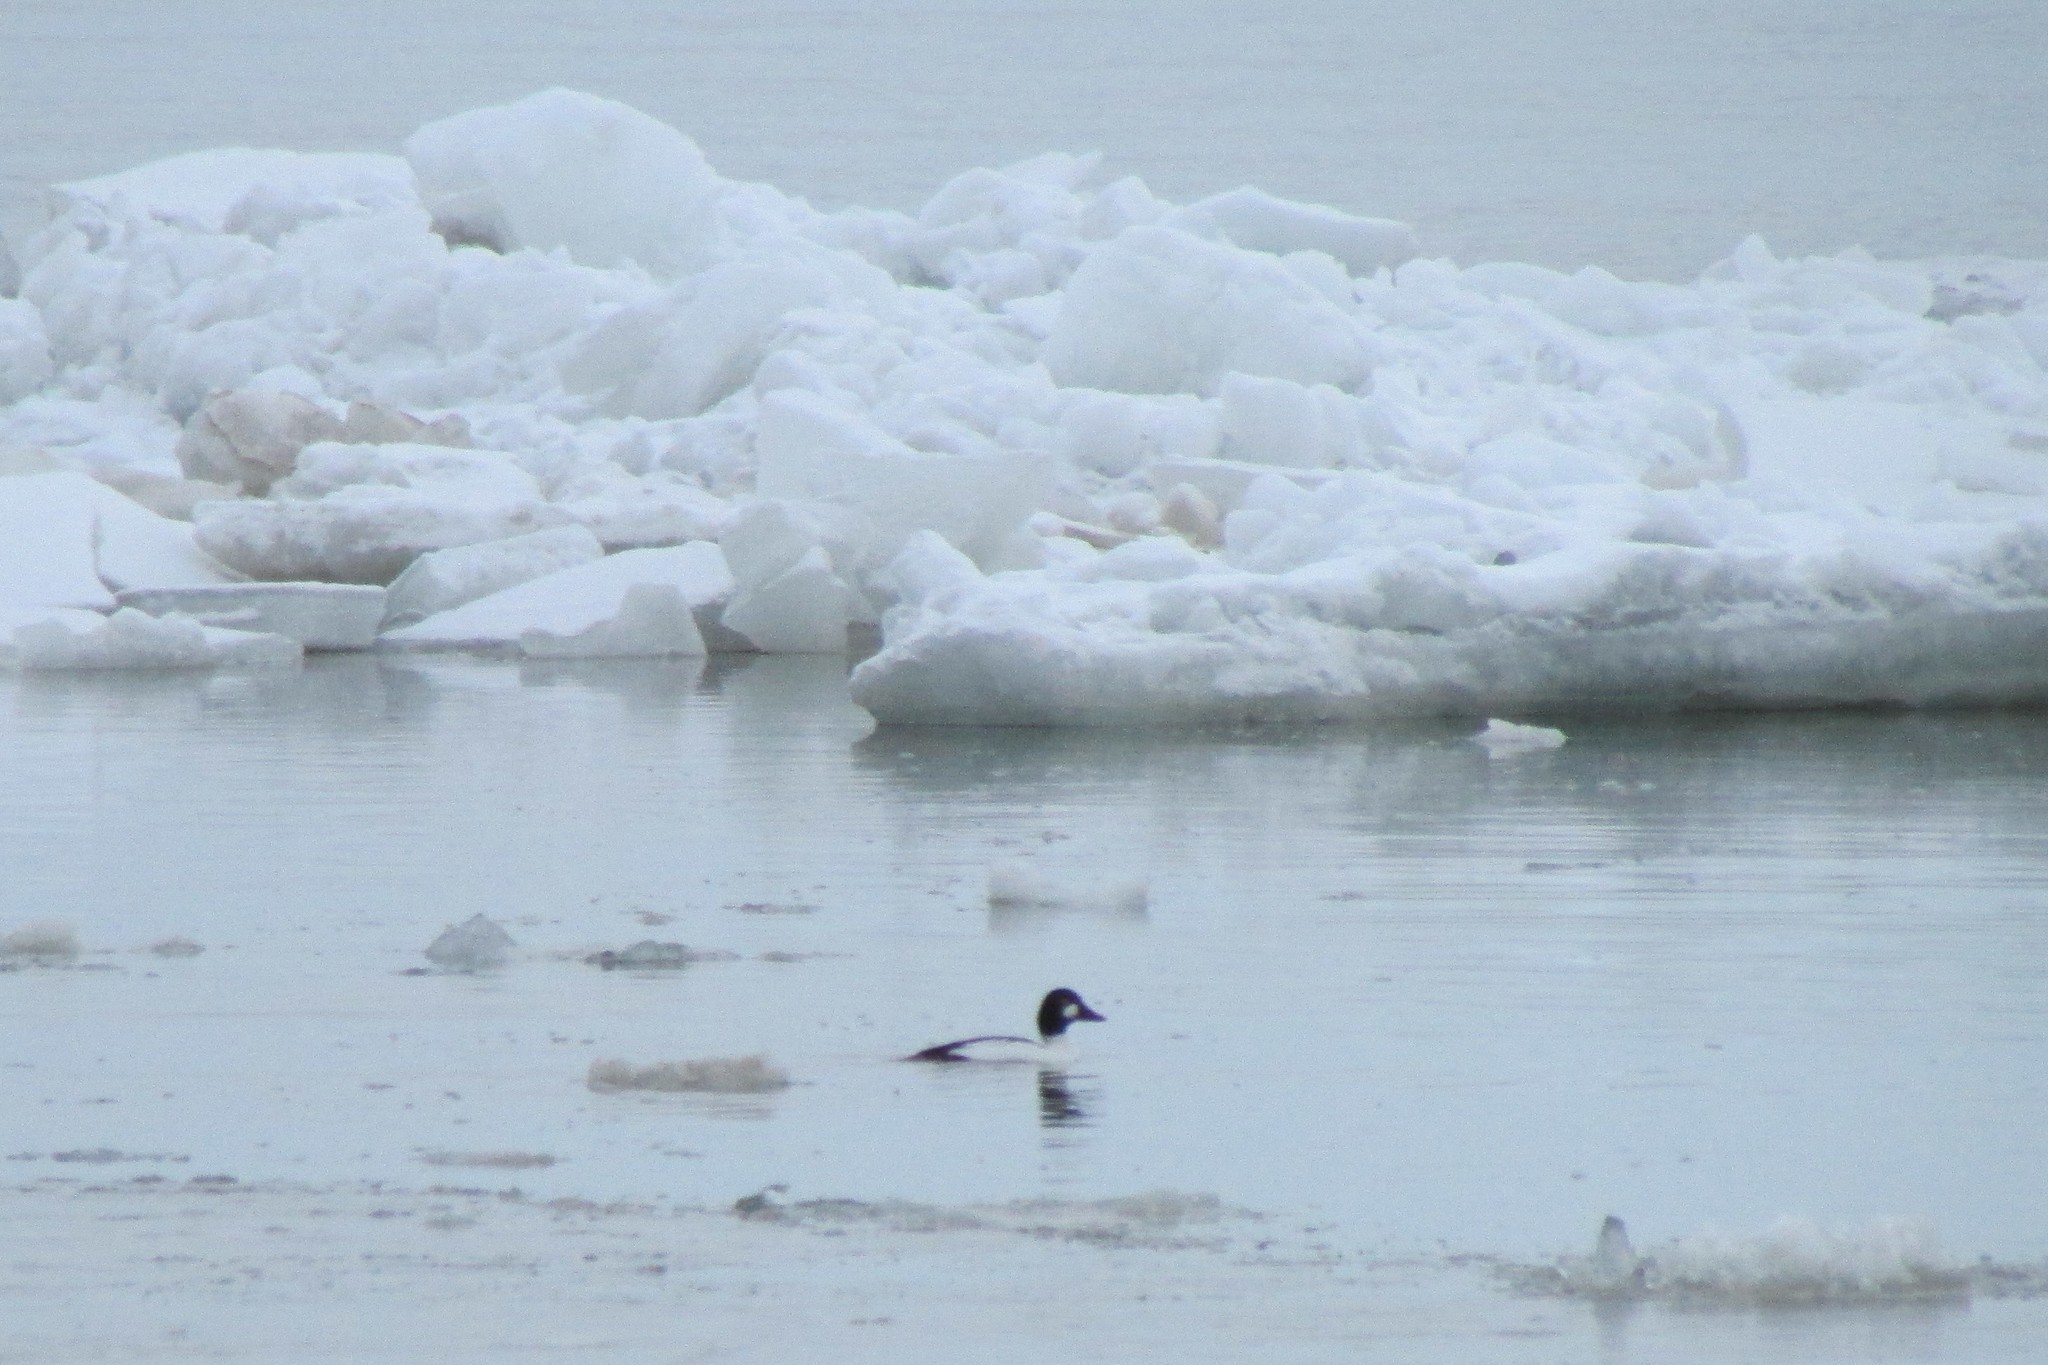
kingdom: Animalia
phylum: Chordata
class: Aves
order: Anseriformes
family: Anatidae
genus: Bucephala
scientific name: Bucephala clangula
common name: Common goldeneye
